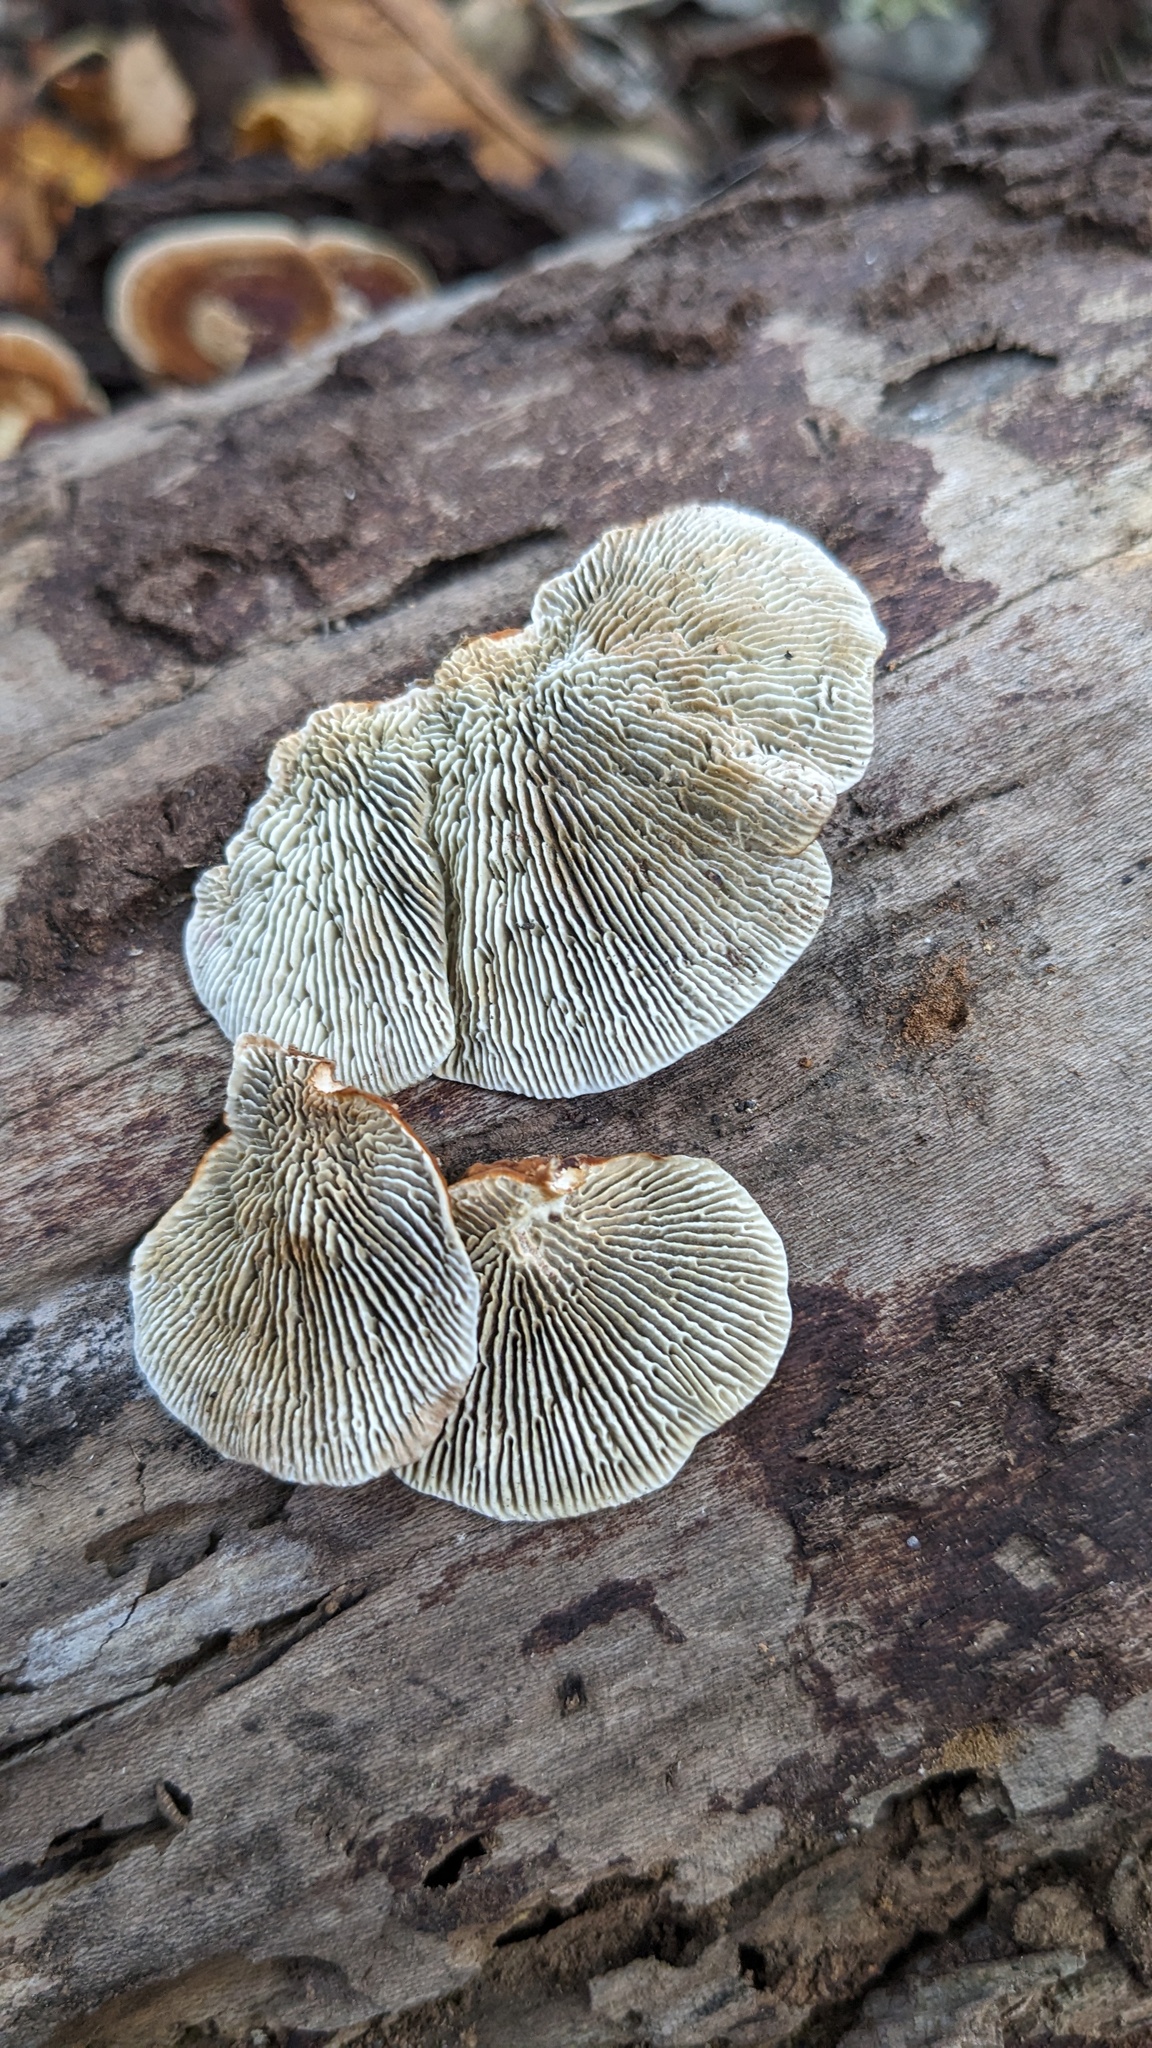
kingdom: Fungi
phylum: Basidiomycota
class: Agaricomycetes
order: Polyporales
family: Polyporaceae
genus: Daedaleopsis
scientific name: Daedaleopsis tricolor
